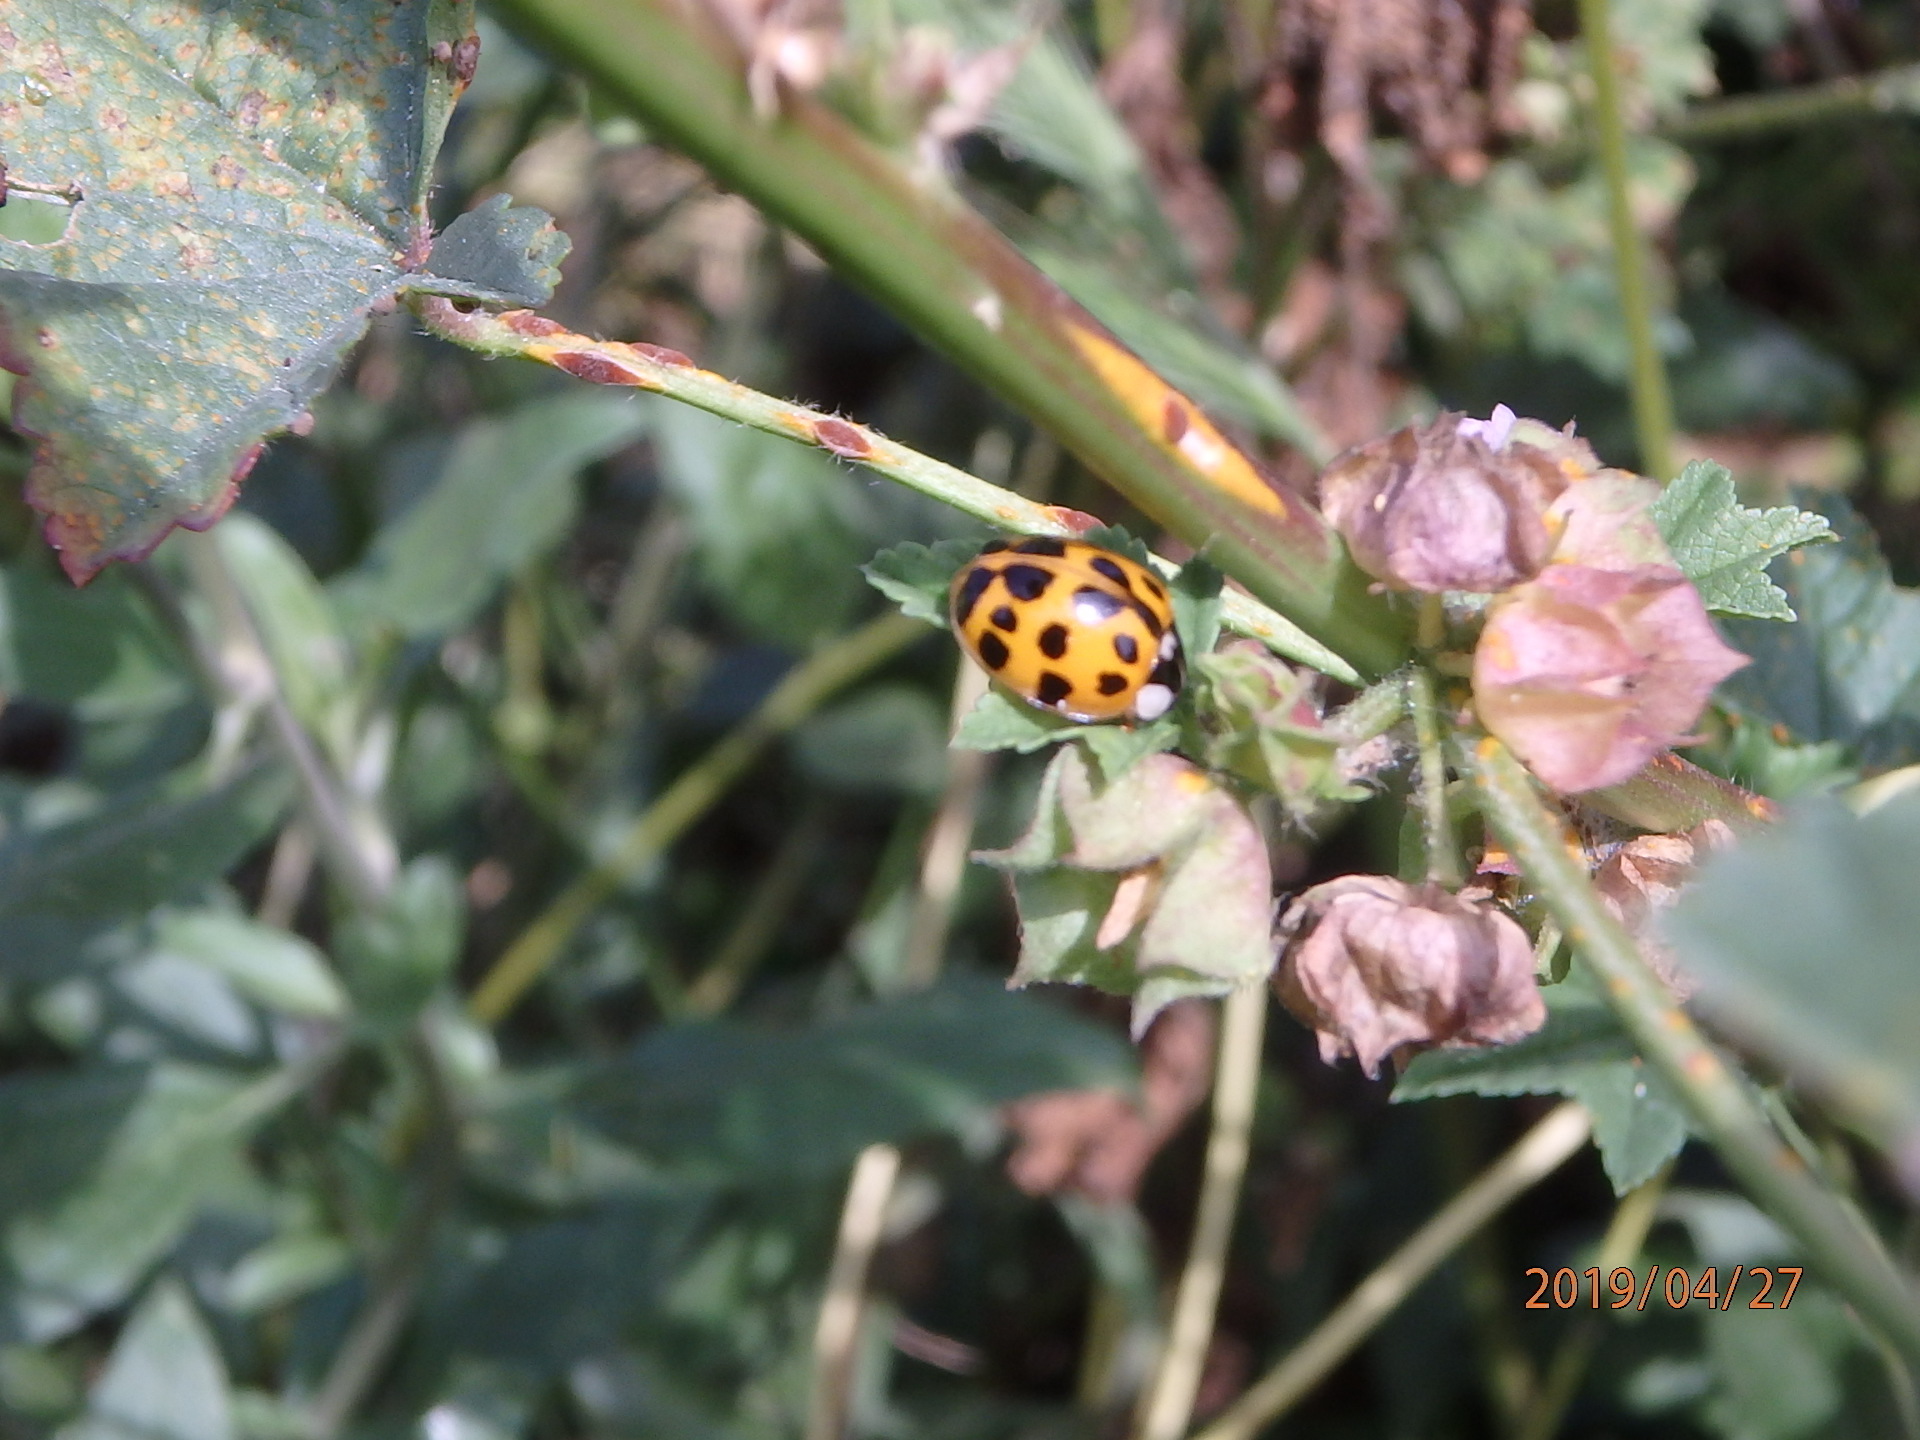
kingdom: Animalia
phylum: Arthropoda
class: Insecta
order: Coleoptera
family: Coccinellidae
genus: Harmonia
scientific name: Harmonia axyridis
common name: Harlequin ladybird
